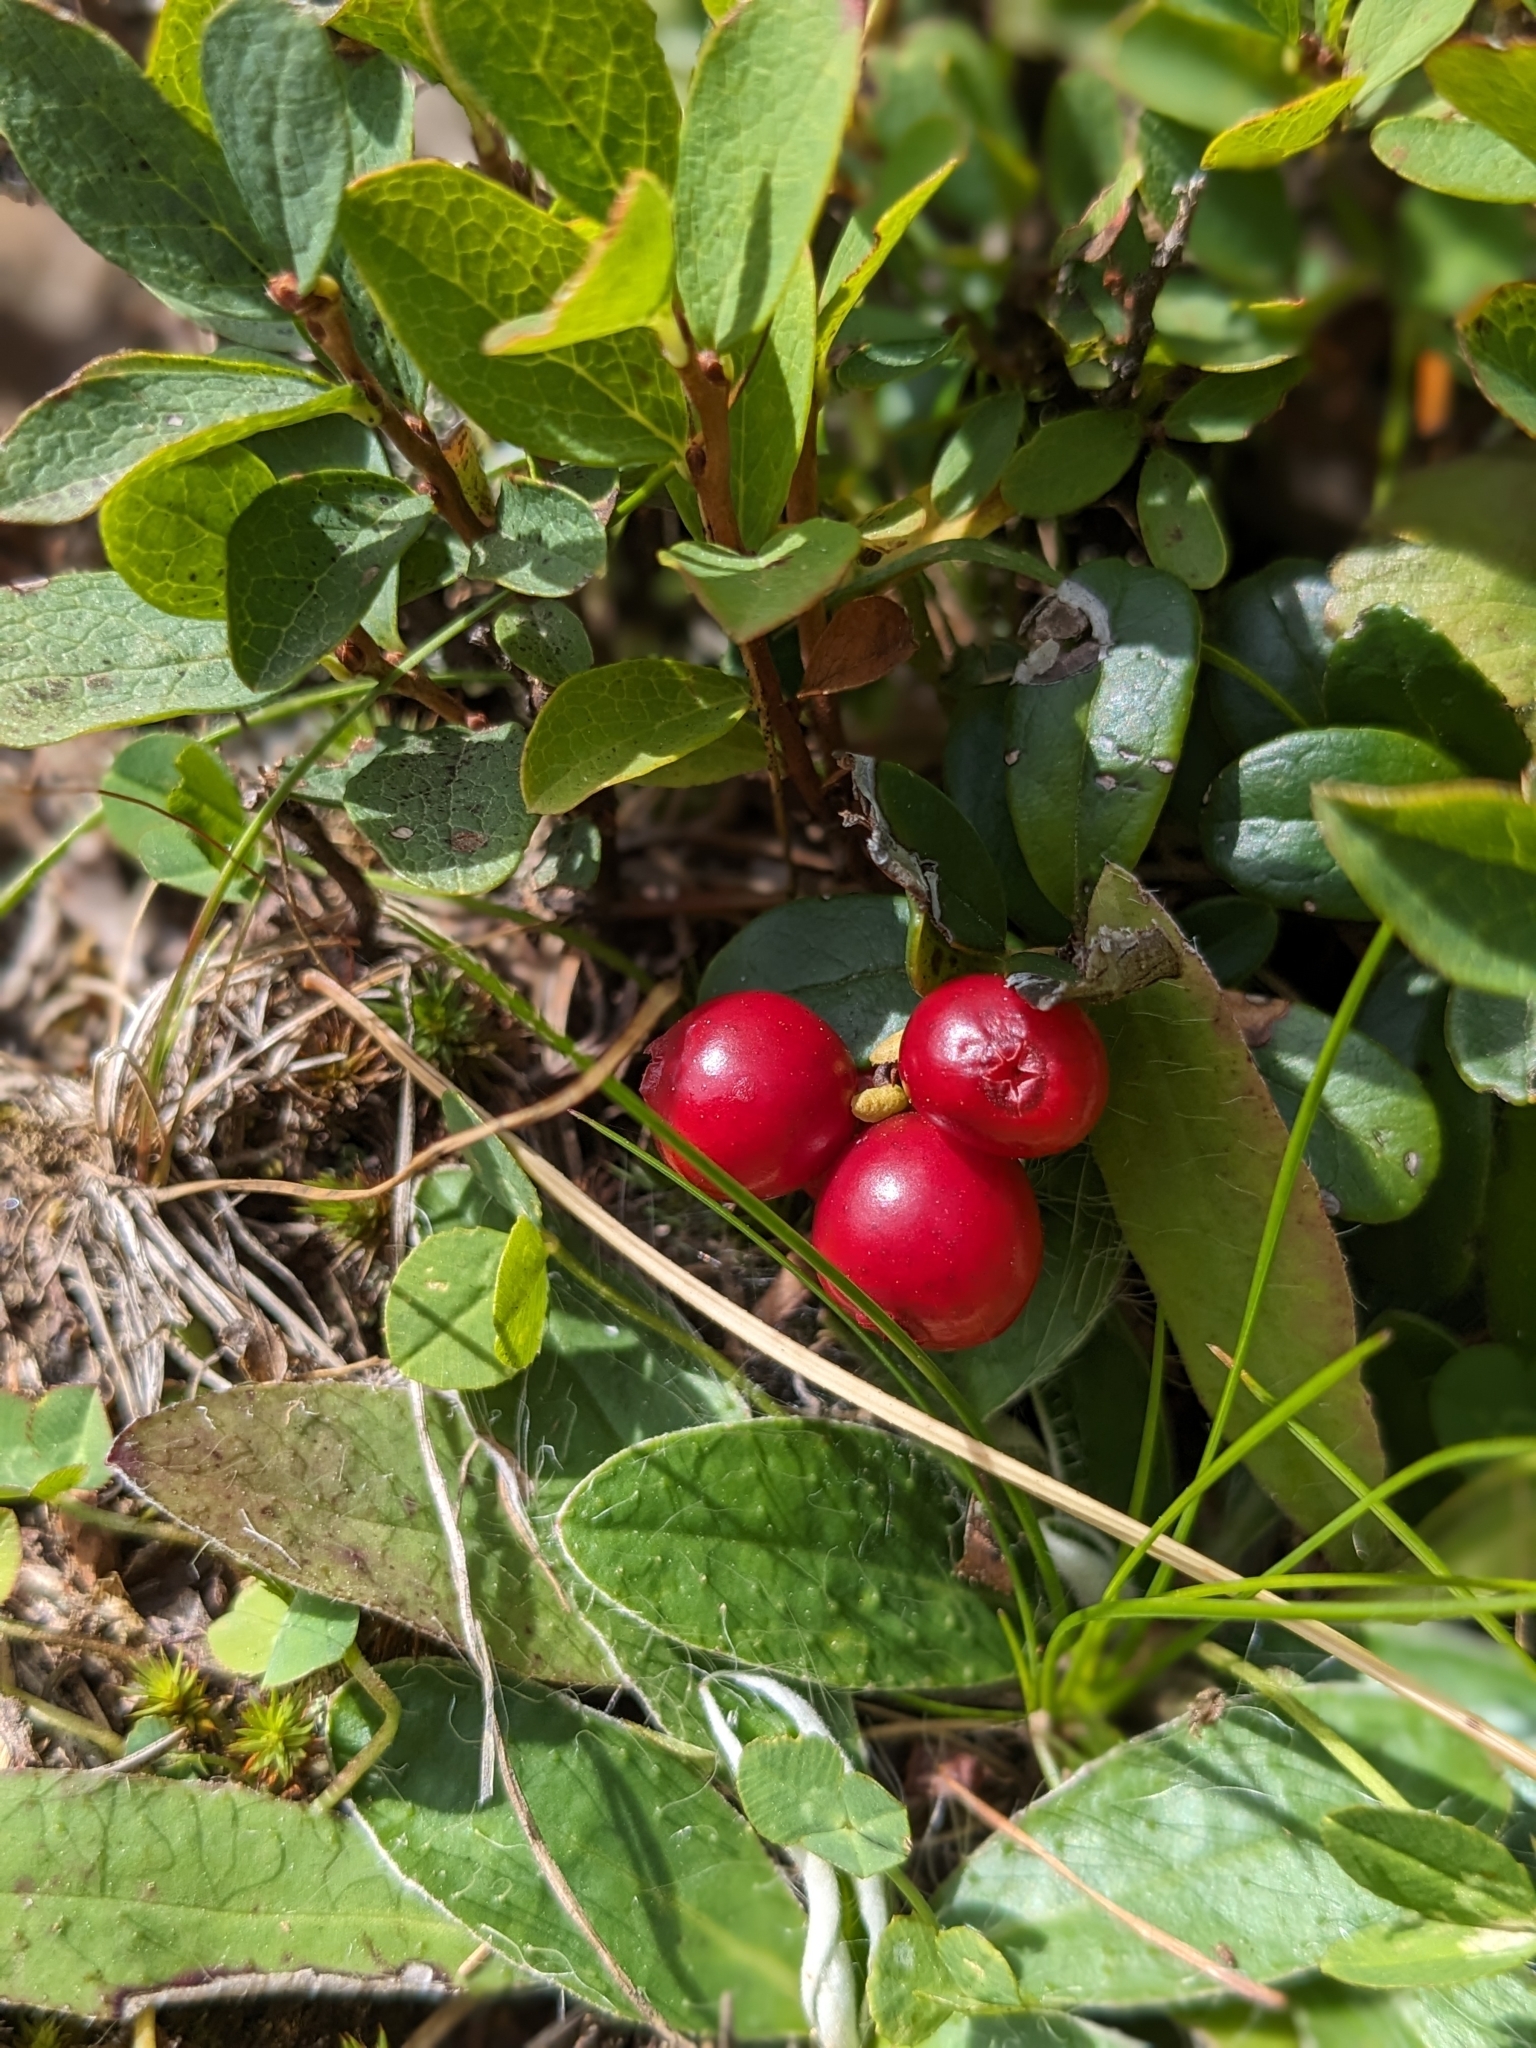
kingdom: Plantae
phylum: Tracheophyta
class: Magnoliopsida
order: Ericales
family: Ericaceae
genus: Vaccinium
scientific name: Vaccinium vitis-idaea
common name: Cowberry
